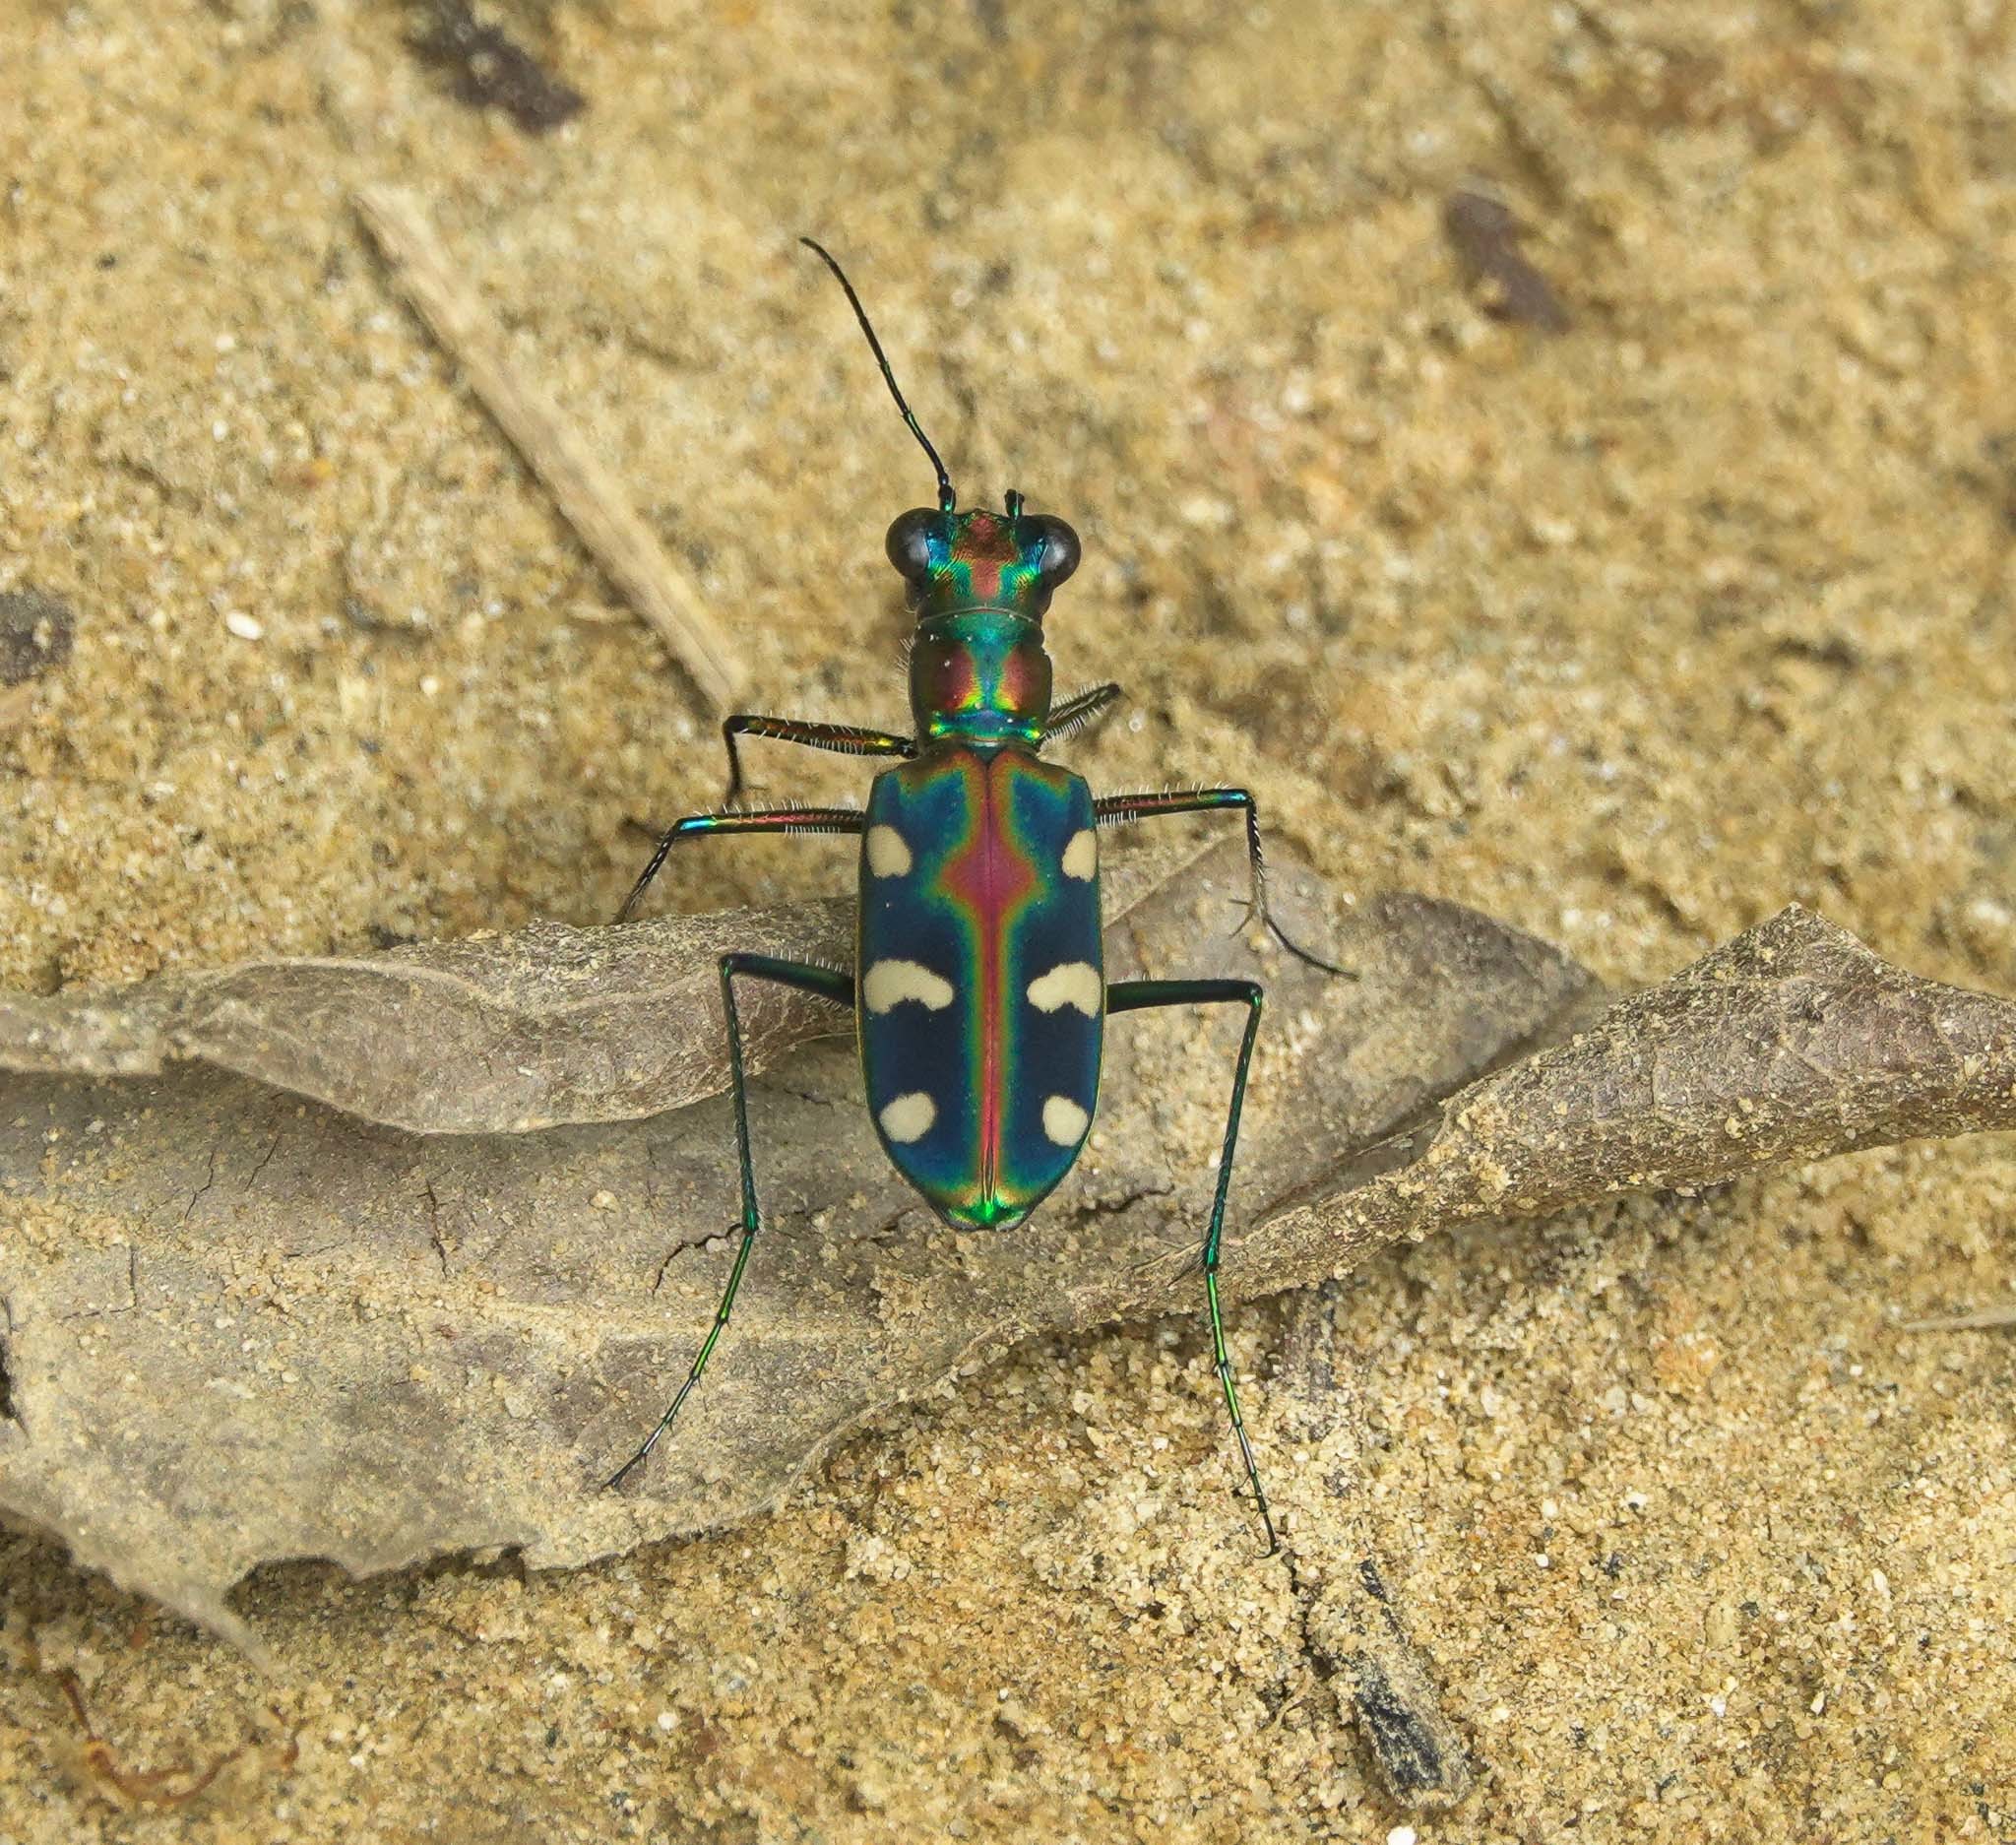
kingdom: Animalia
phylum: Arthropoda
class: Insecta
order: Coleoptera
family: Carabidae
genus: Cicindela
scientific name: Cicindela virgula
